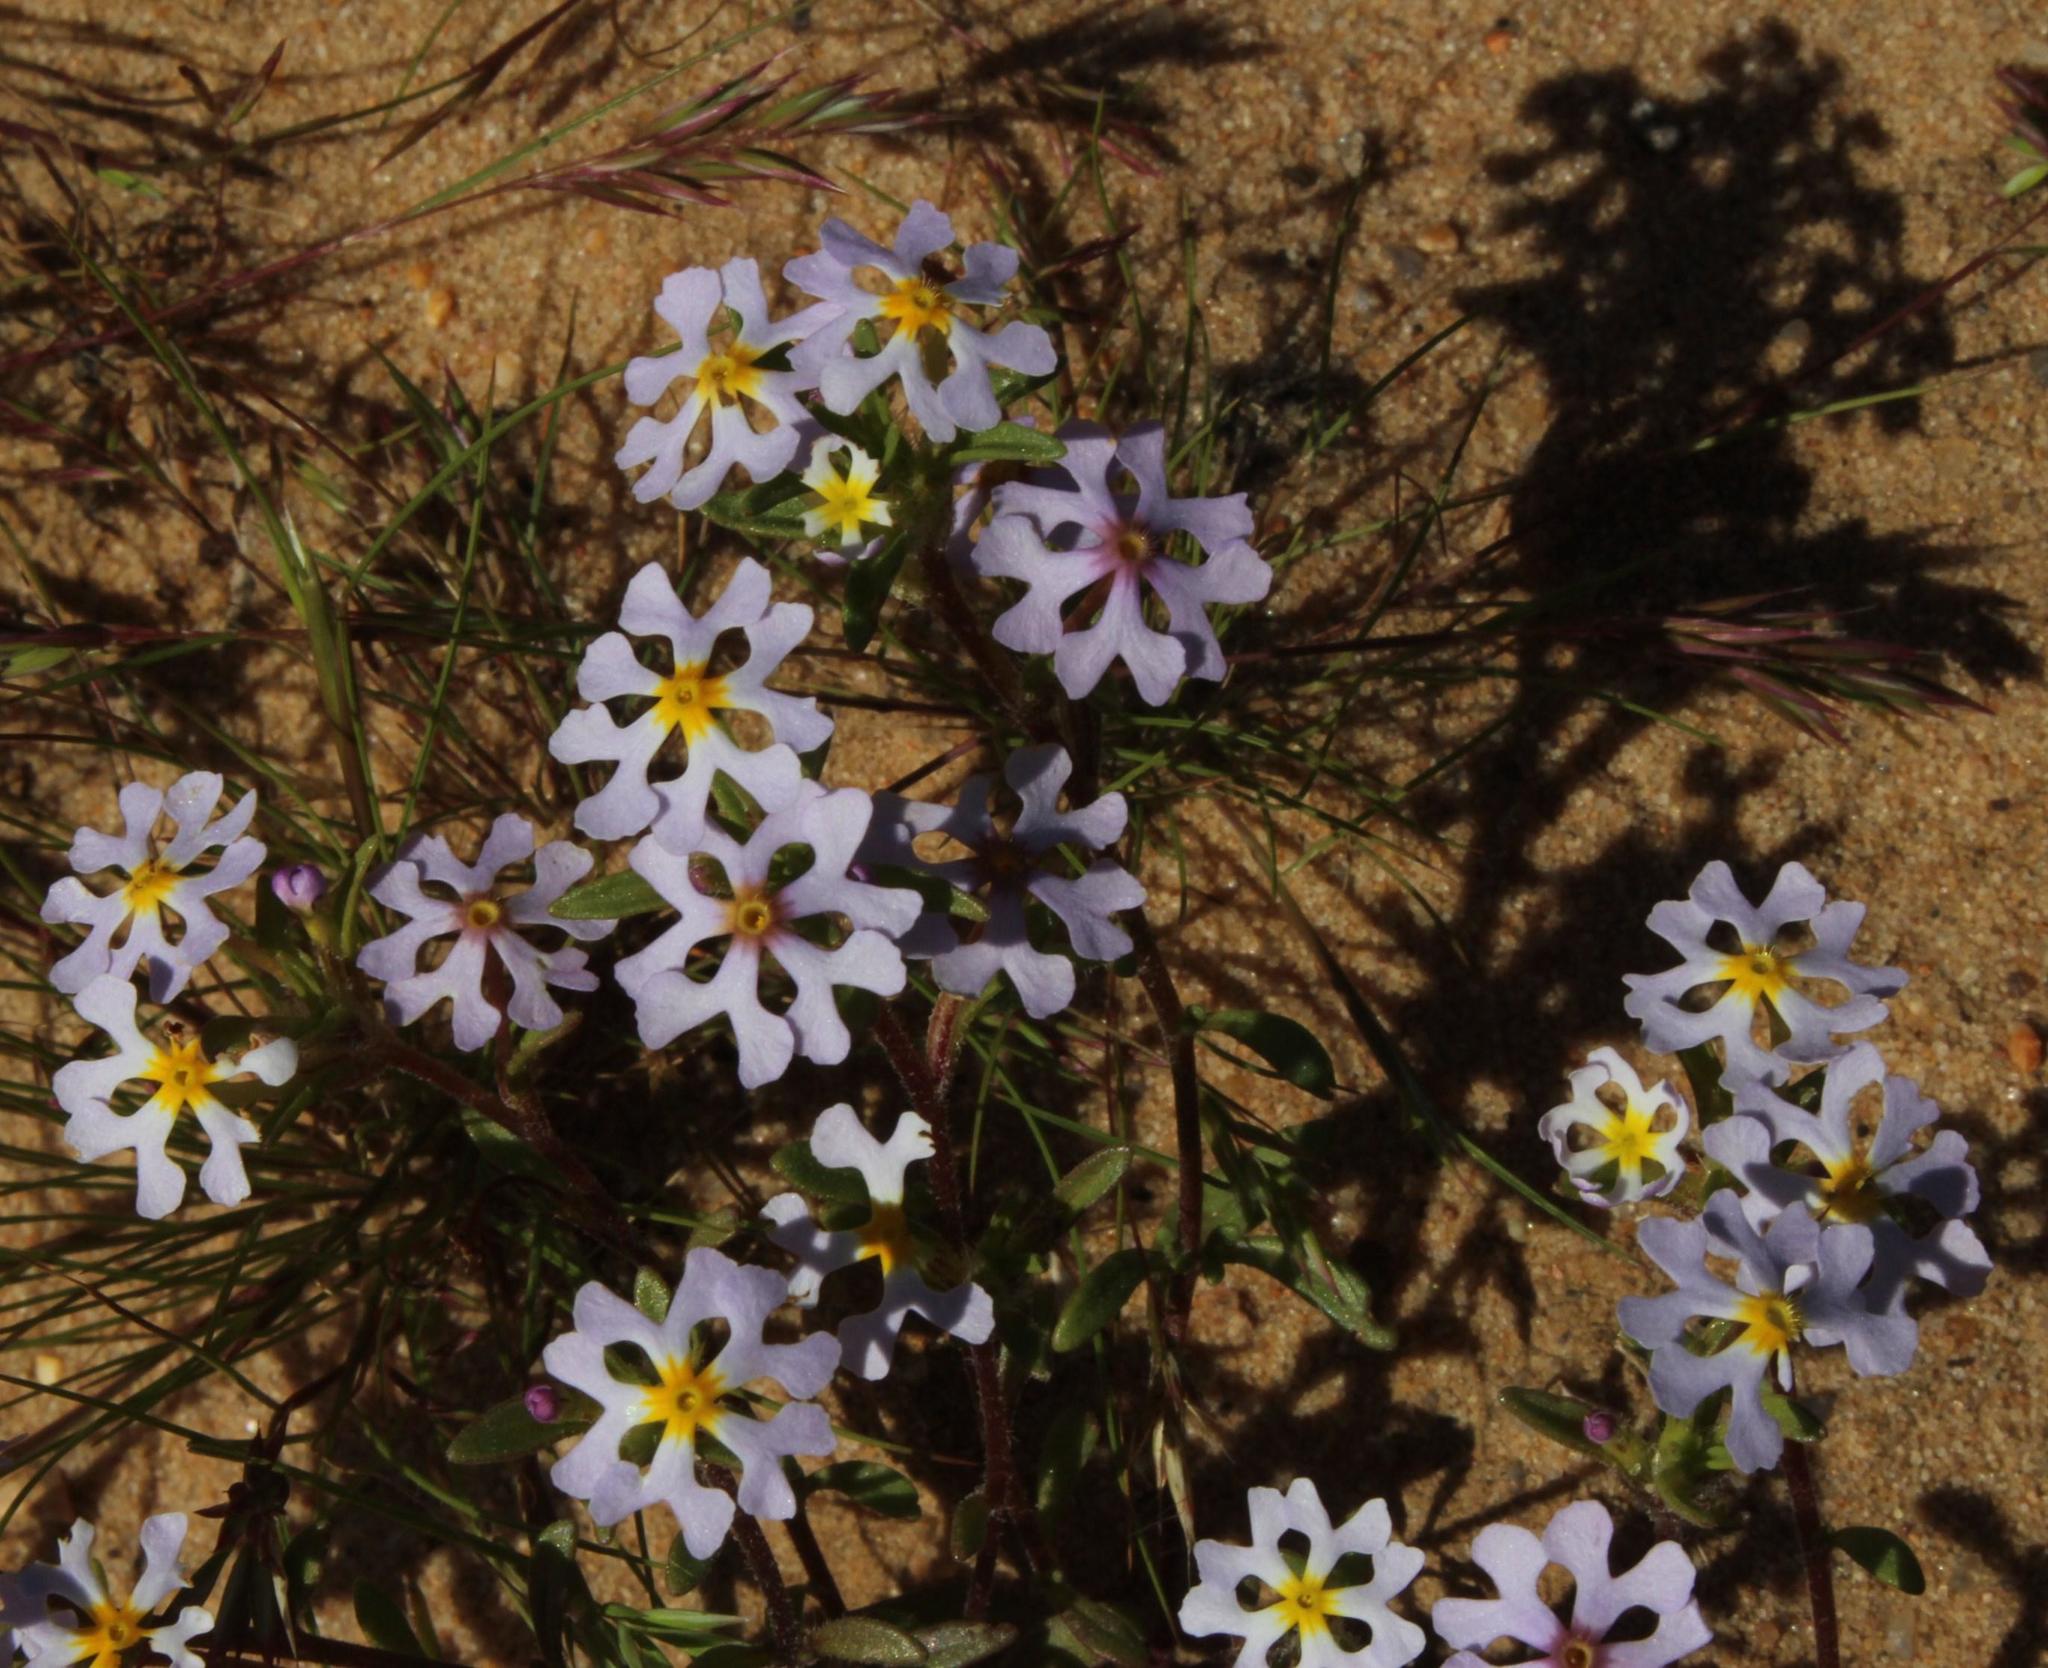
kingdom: Plantae
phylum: Tracheophyta
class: Magnoliopsida
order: Lamiales
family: Scrophulariaceae
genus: Zaluzianskya
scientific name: Zaluzianskya affinis
